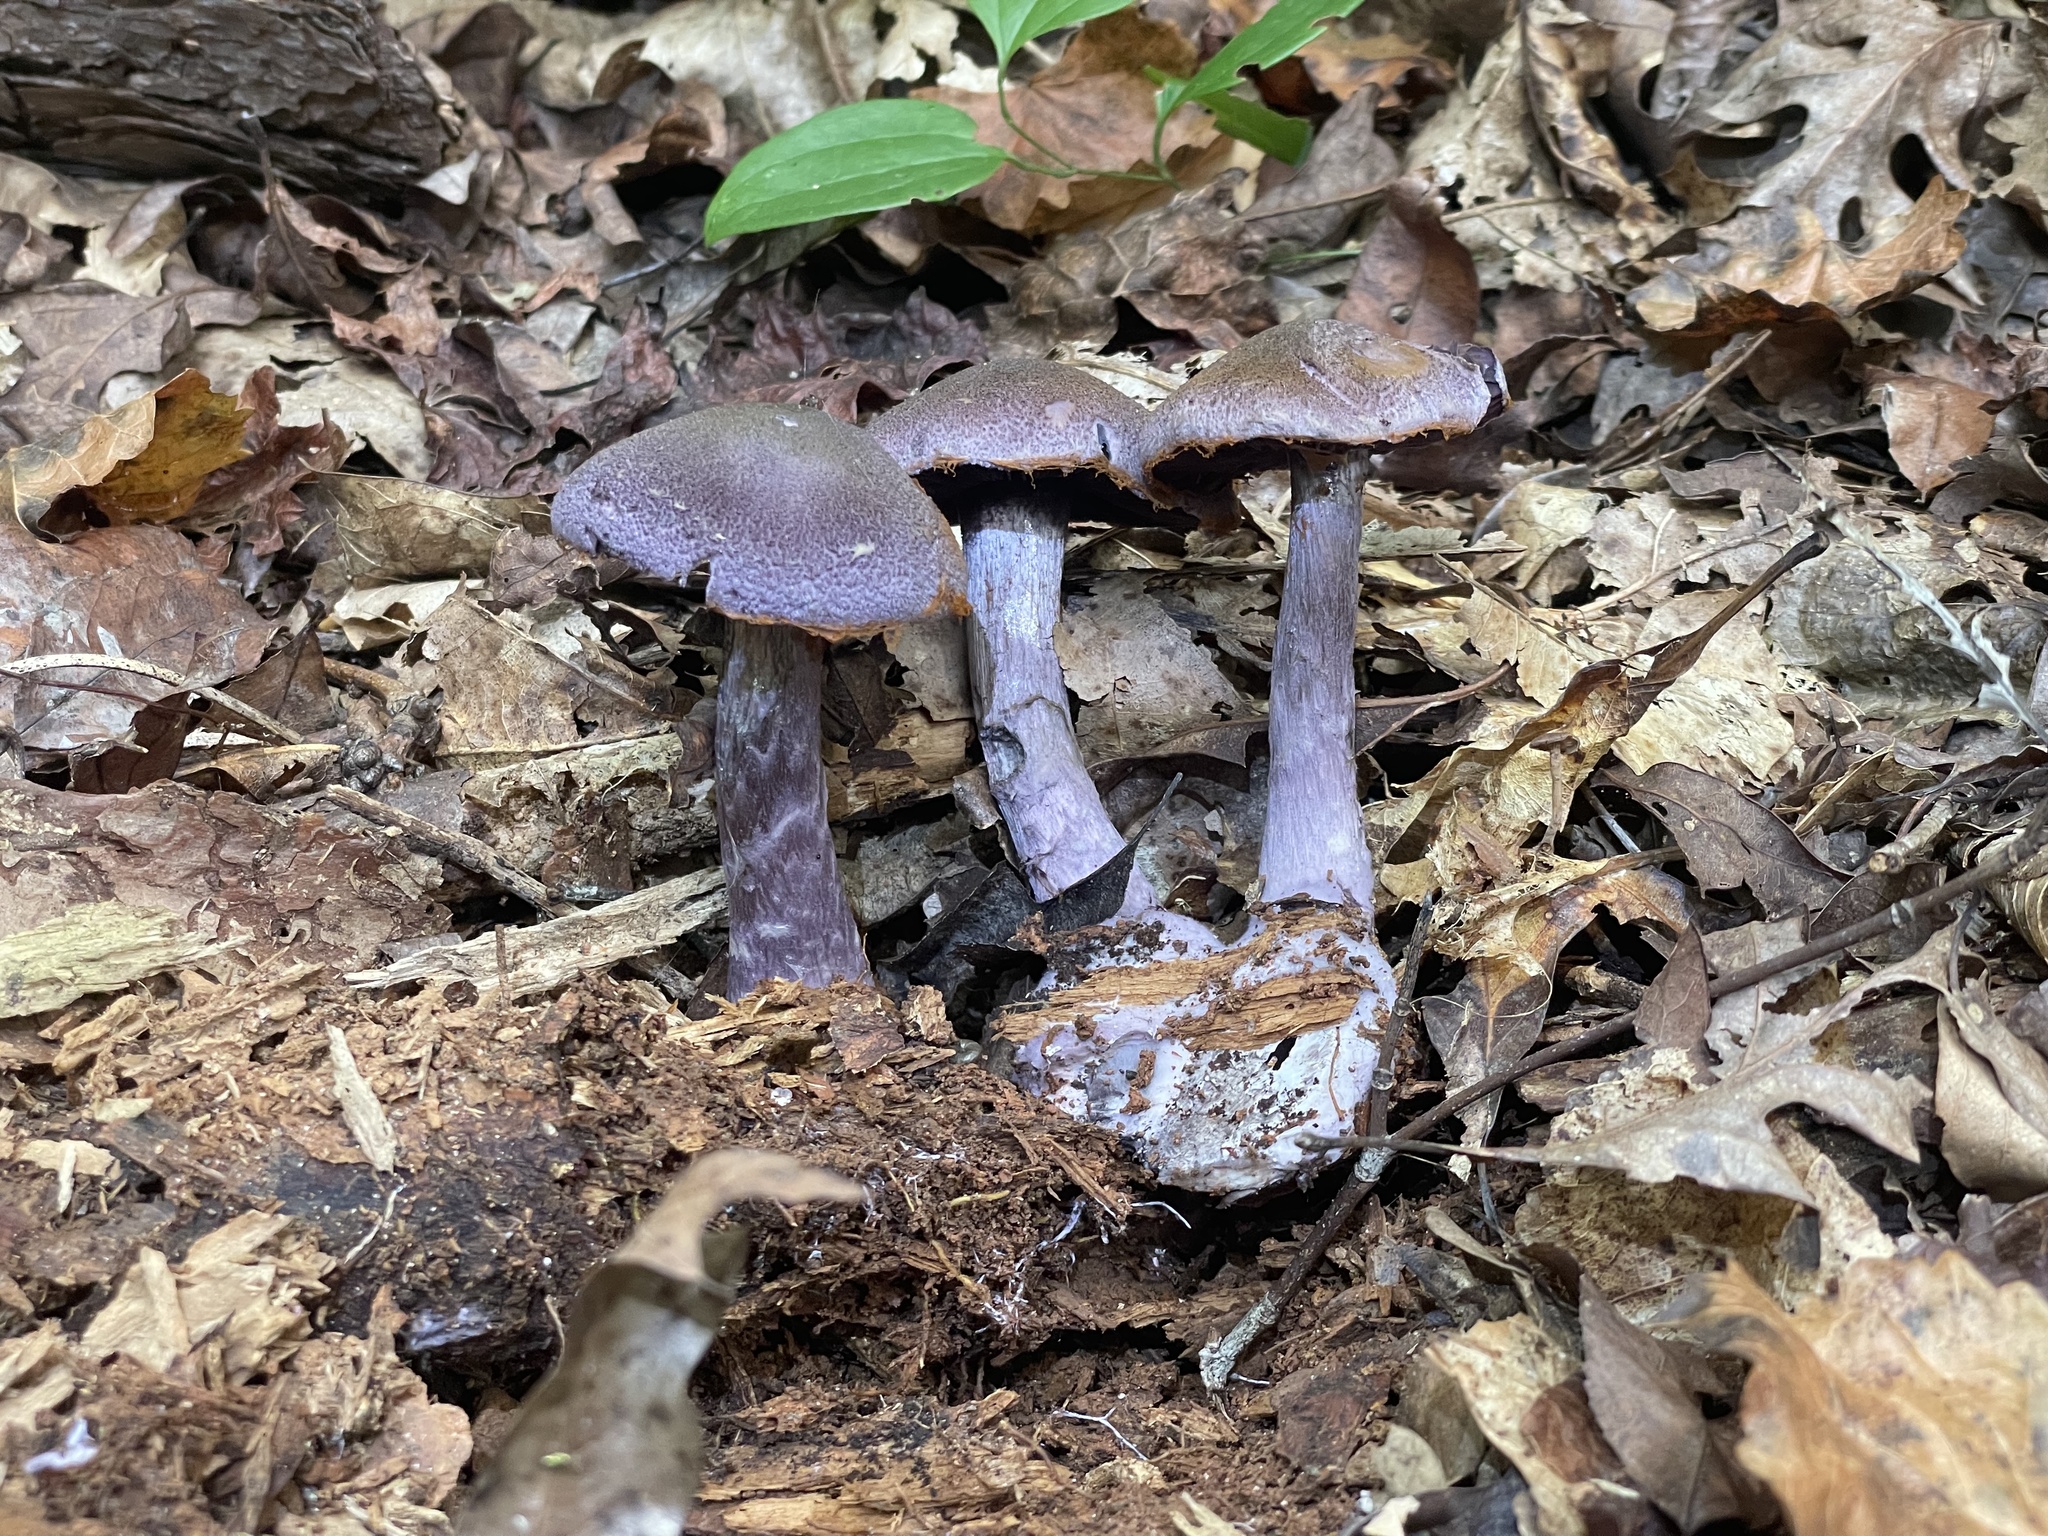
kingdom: Fungi
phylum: Basidiomycota
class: Agaricomycetes
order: Agaricales
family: Cortinariaceae
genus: Cortinarius
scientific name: Cortinarius violaceus
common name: Violet webcap
